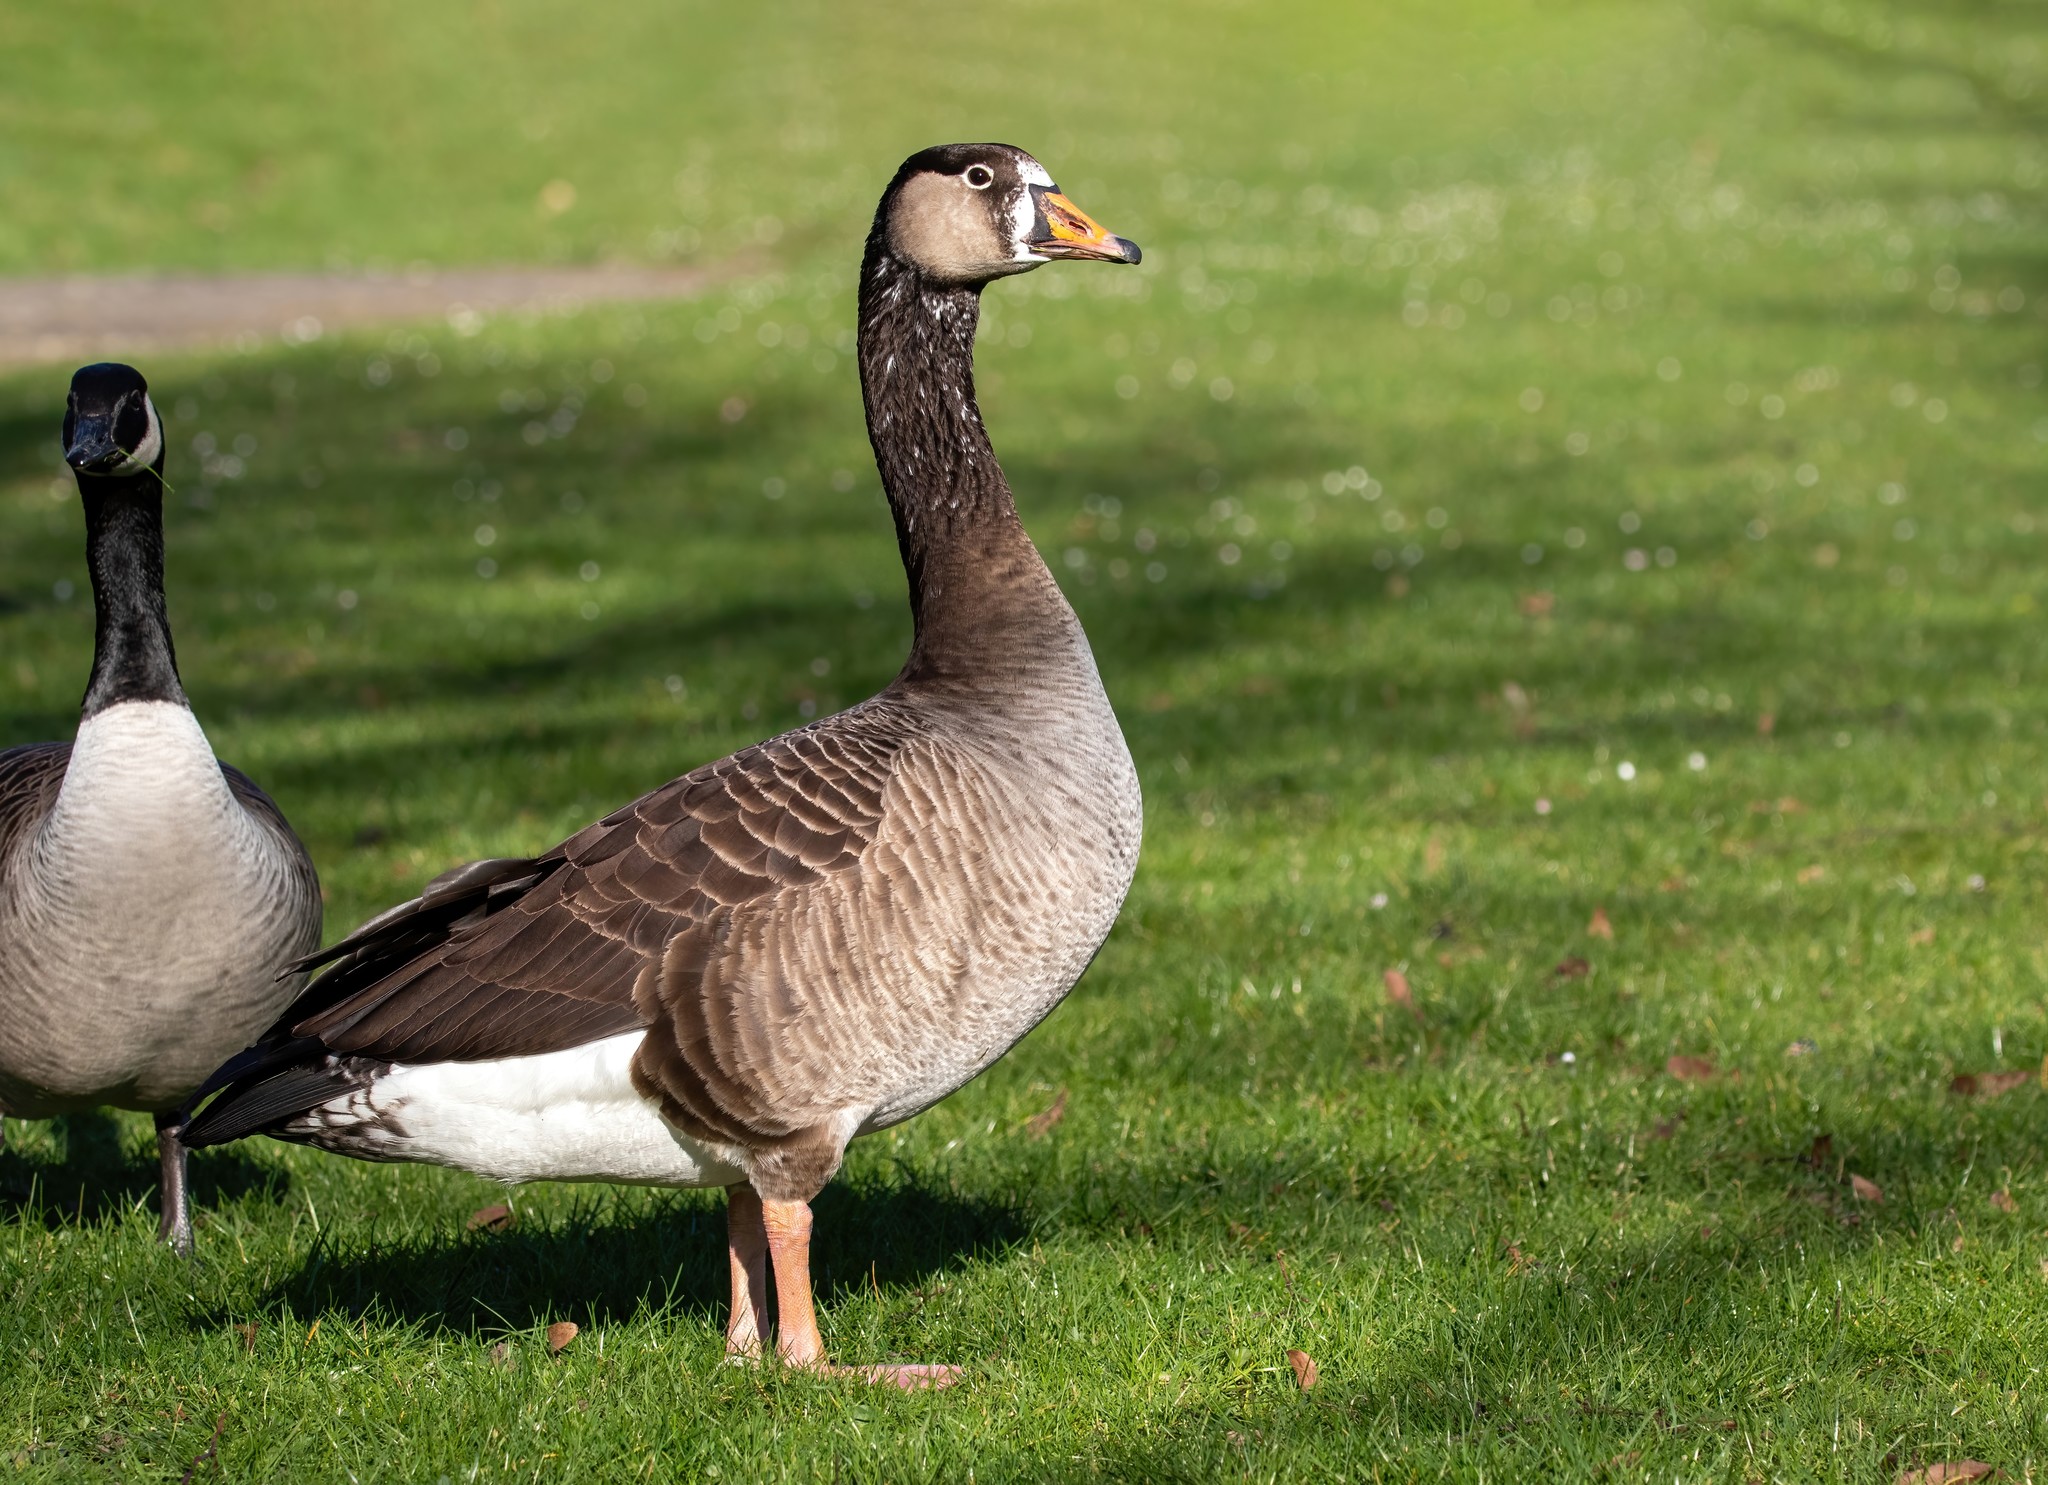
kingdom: Animalia
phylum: Chordata
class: Aves
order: Anseriformes
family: Anatidae
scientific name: Anatidae
